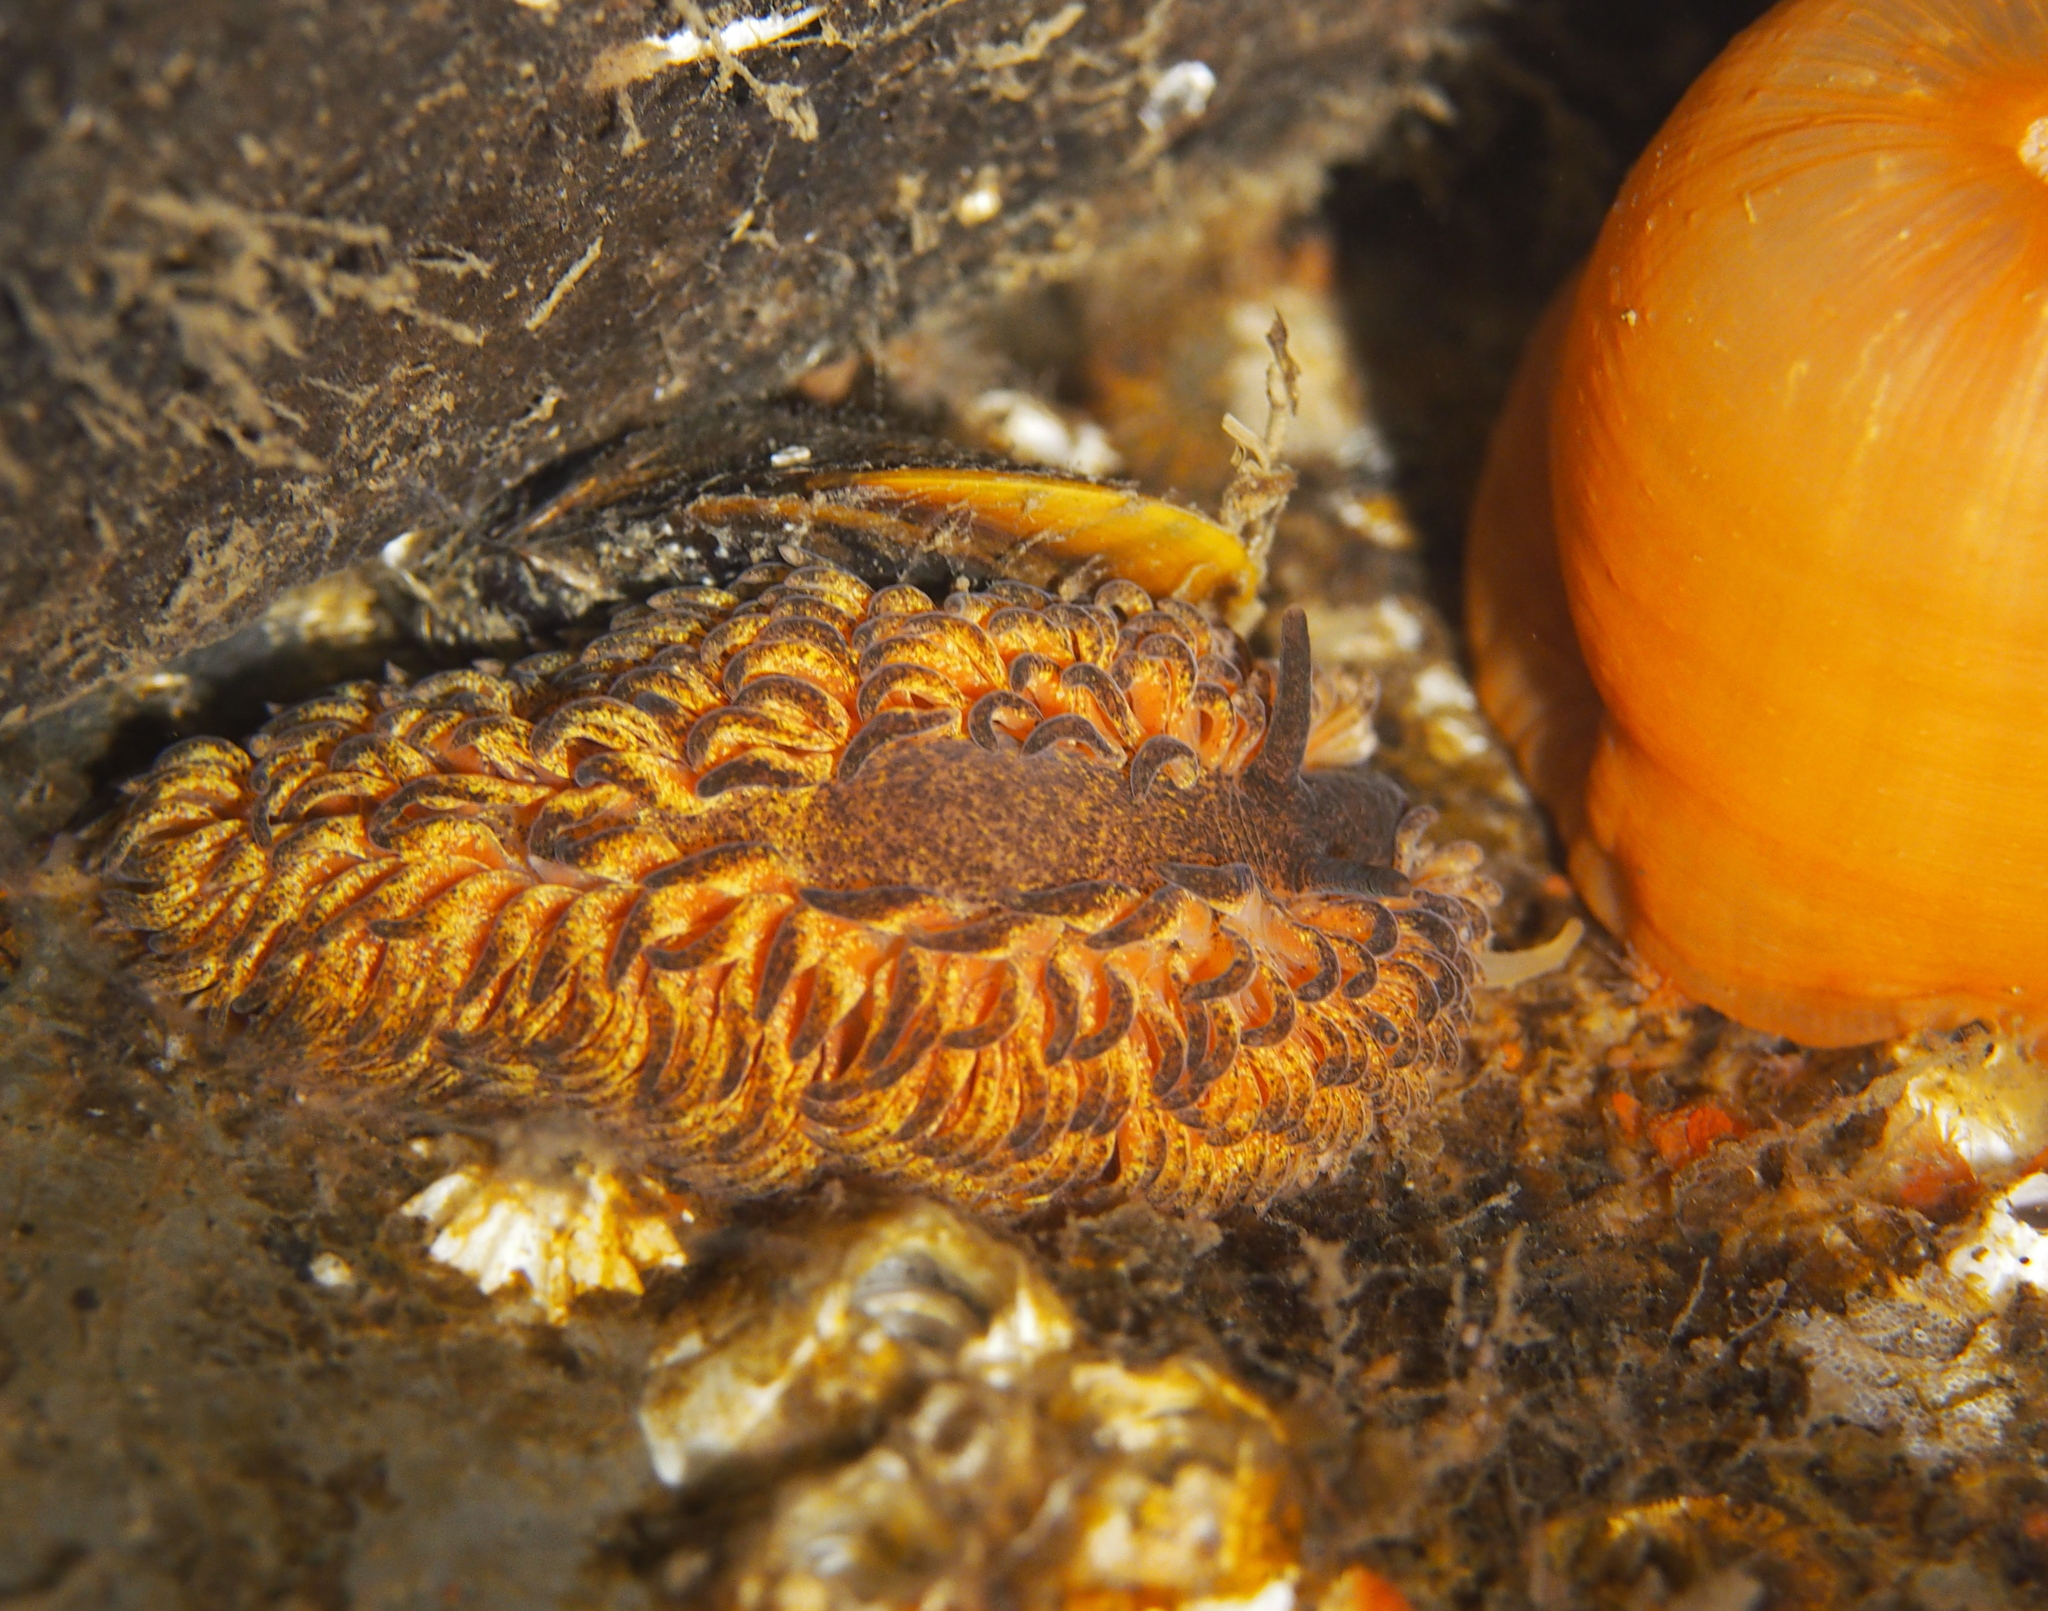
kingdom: Animalia
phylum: Mollusca
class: Gastropoda
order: Nudibranchia
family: Aeolidiidae
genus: Aeolidia
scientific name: Aeolidia papillosa
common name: Common grey sea slug
